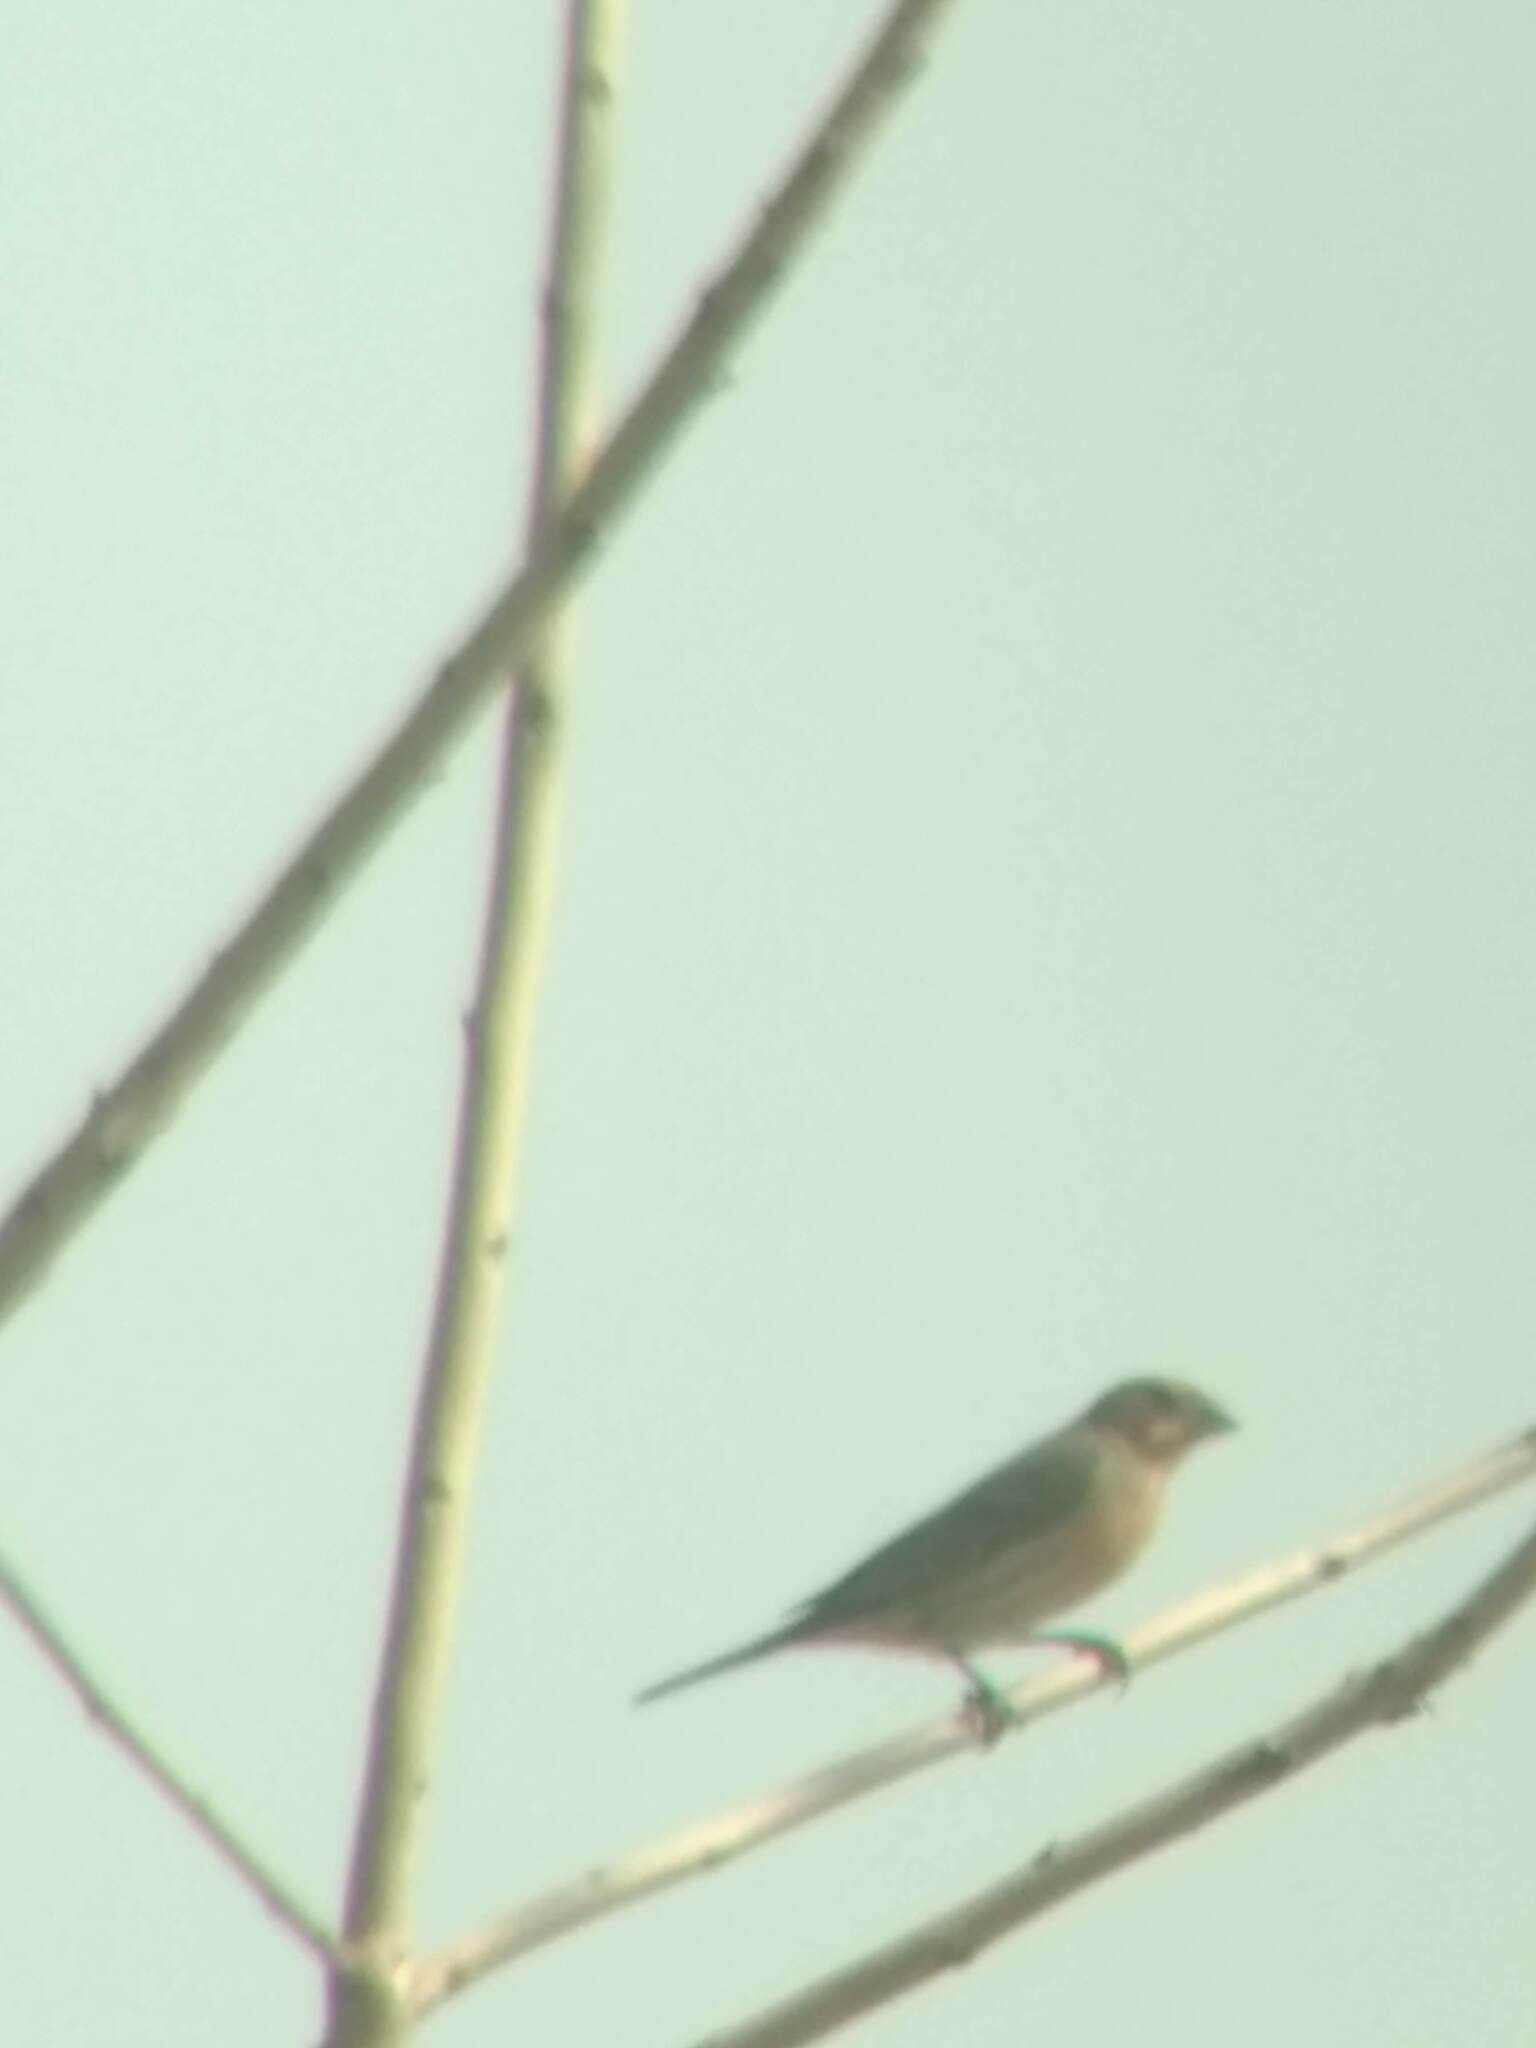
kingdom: Animalia
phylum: Chordata
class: Aves
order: Passeriformes
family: Fringillidae
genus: Haemorhous
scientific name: Haemorhous mexicanus
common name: House finch
